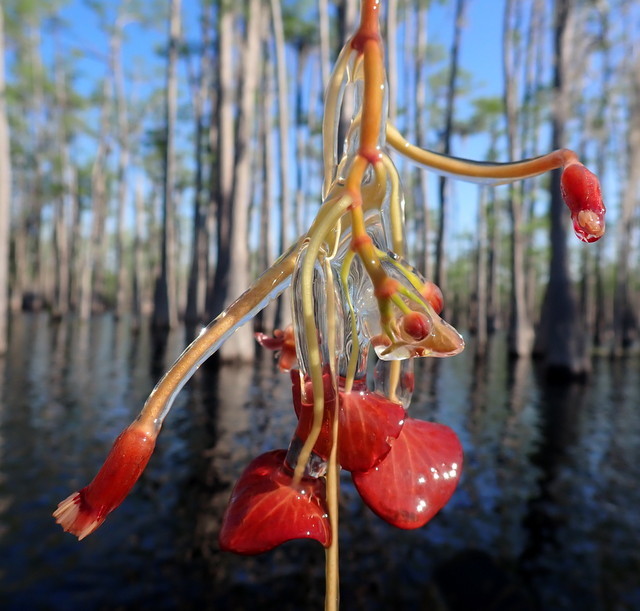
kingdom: Plantae
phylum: Tracheophyta
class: Magnoliopsida
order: Nymphaeales
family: Cabombaceae
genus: Brasenia
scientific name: Brasenia schreberi
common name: Water-shield
